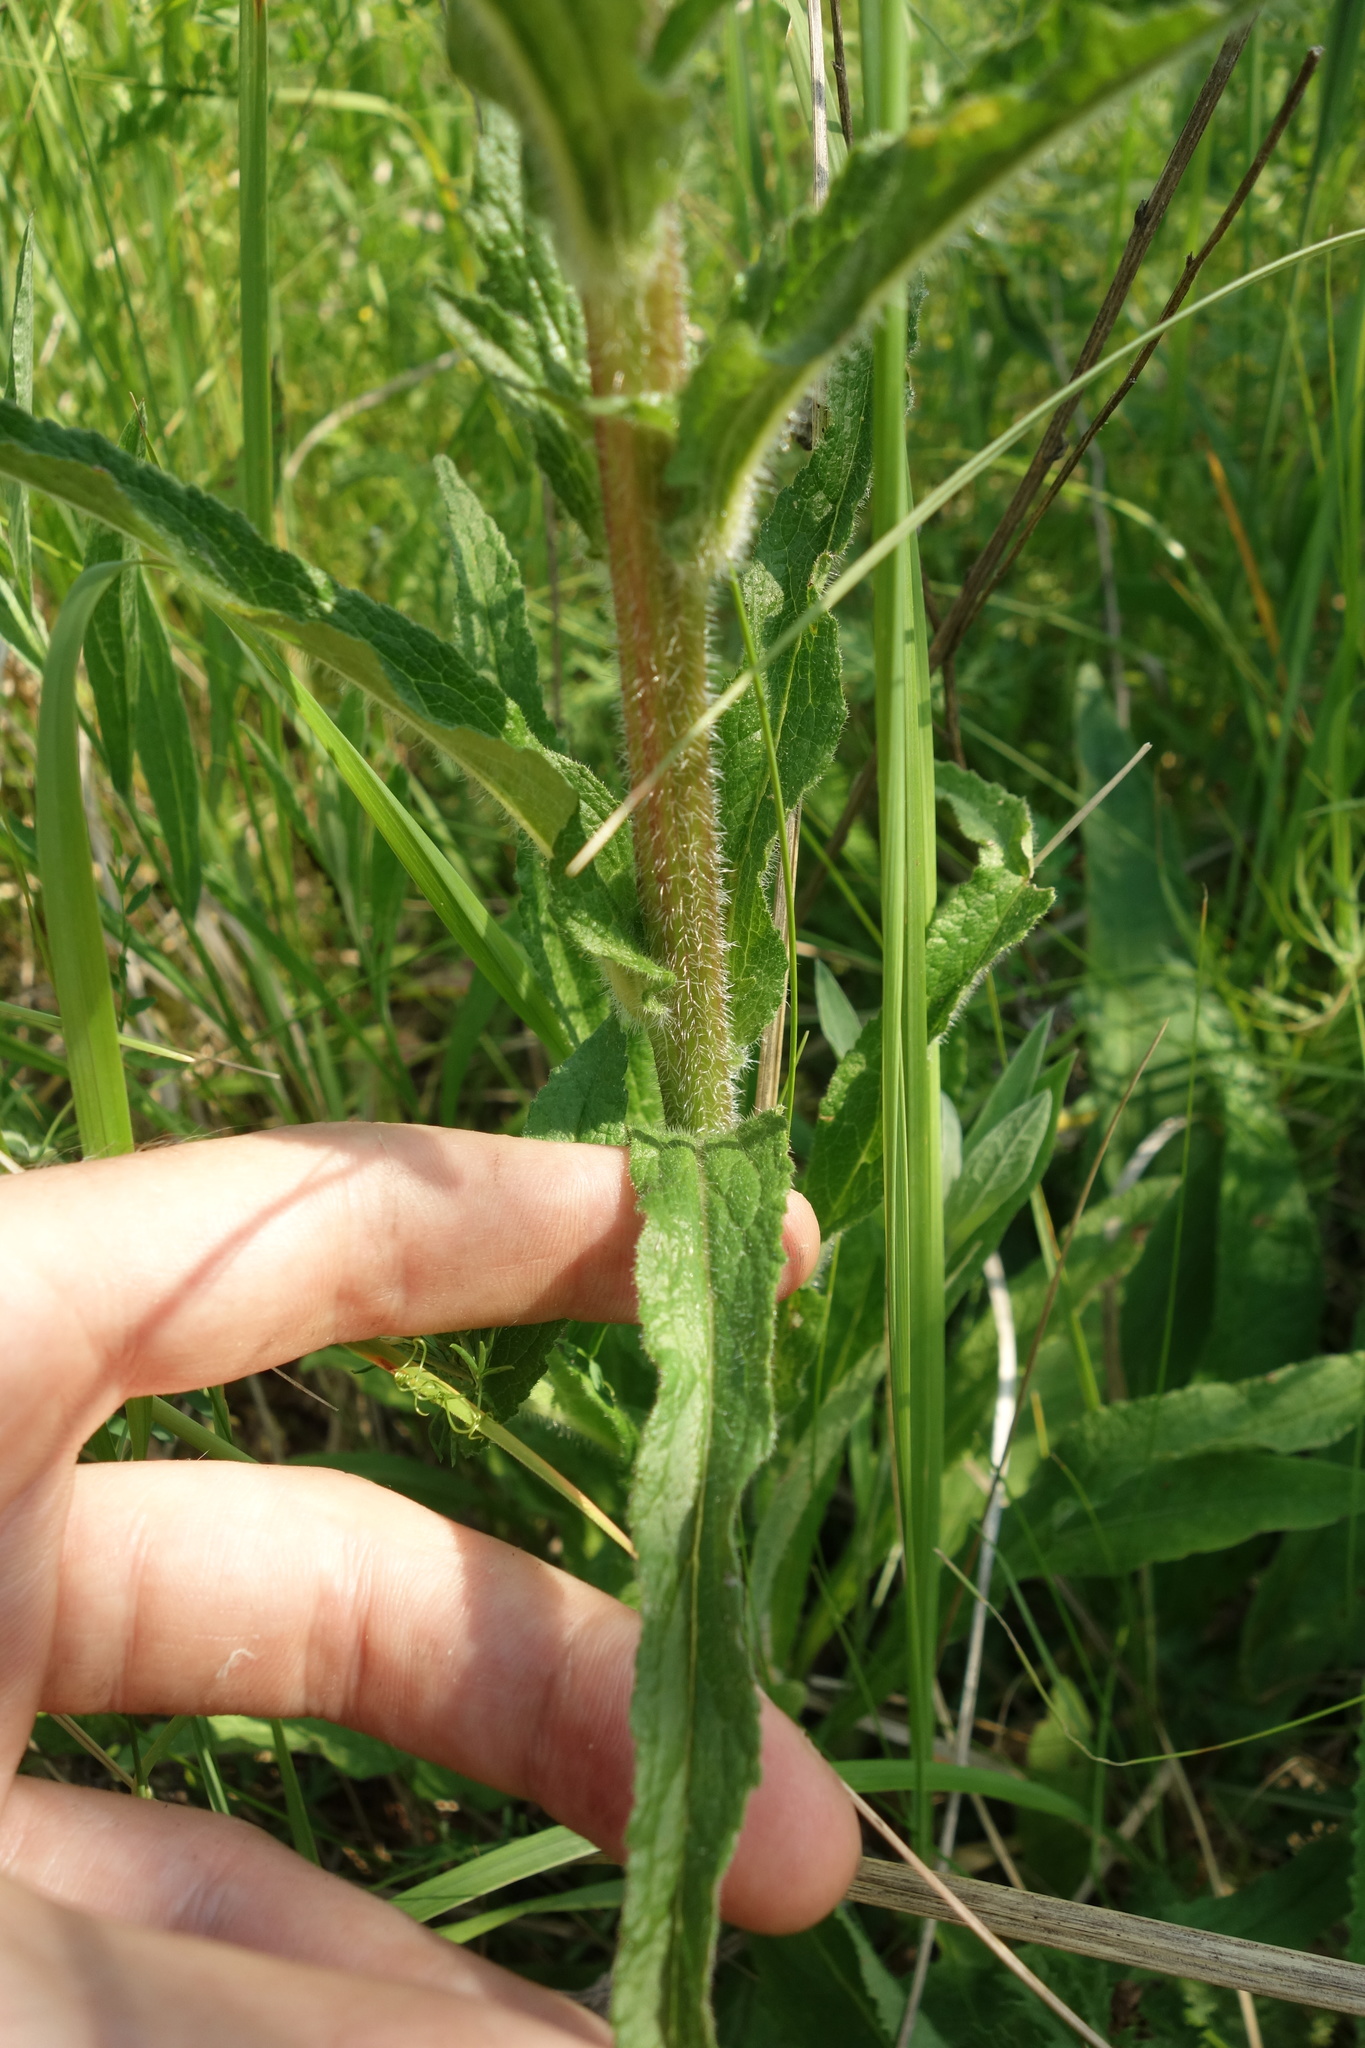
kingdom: Plantae
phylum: Tracheophyta
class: Magnoliopsida
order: Asterales
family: Campanulaceae
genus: Campanula
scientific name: Campanula cervicaria
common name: Bristly bellflower
